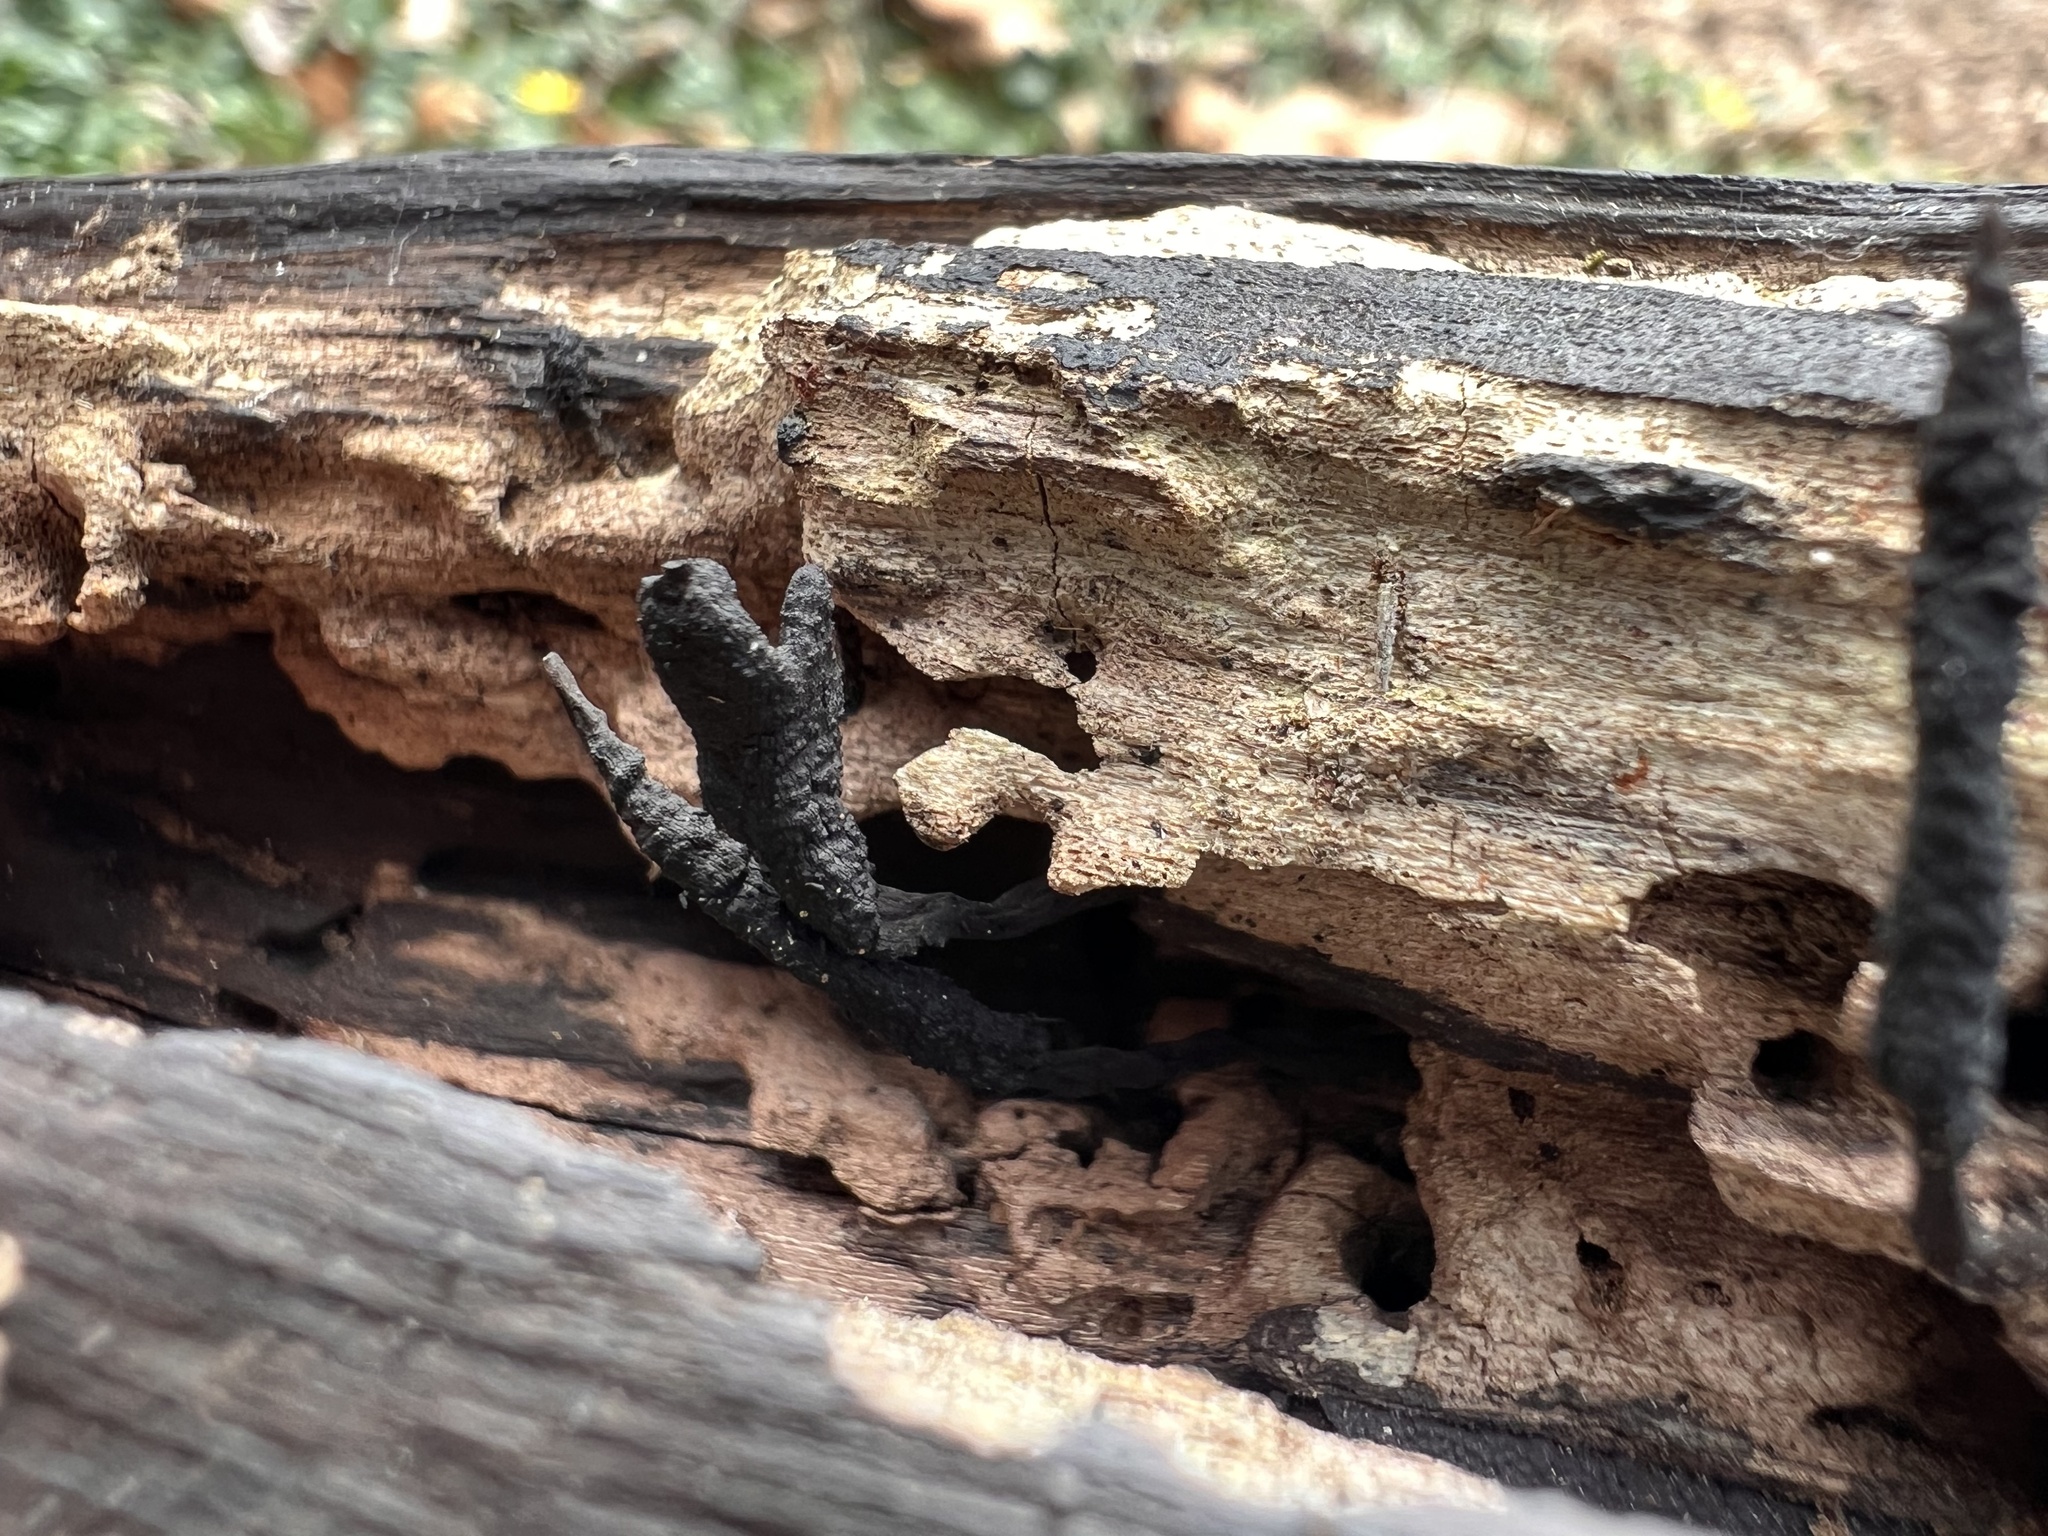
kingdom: Fungi
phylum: Ascomycota
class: Sordariomycetes
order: Xylariales
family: Xylariaceae
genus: Xylaria
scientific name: Xylaria
